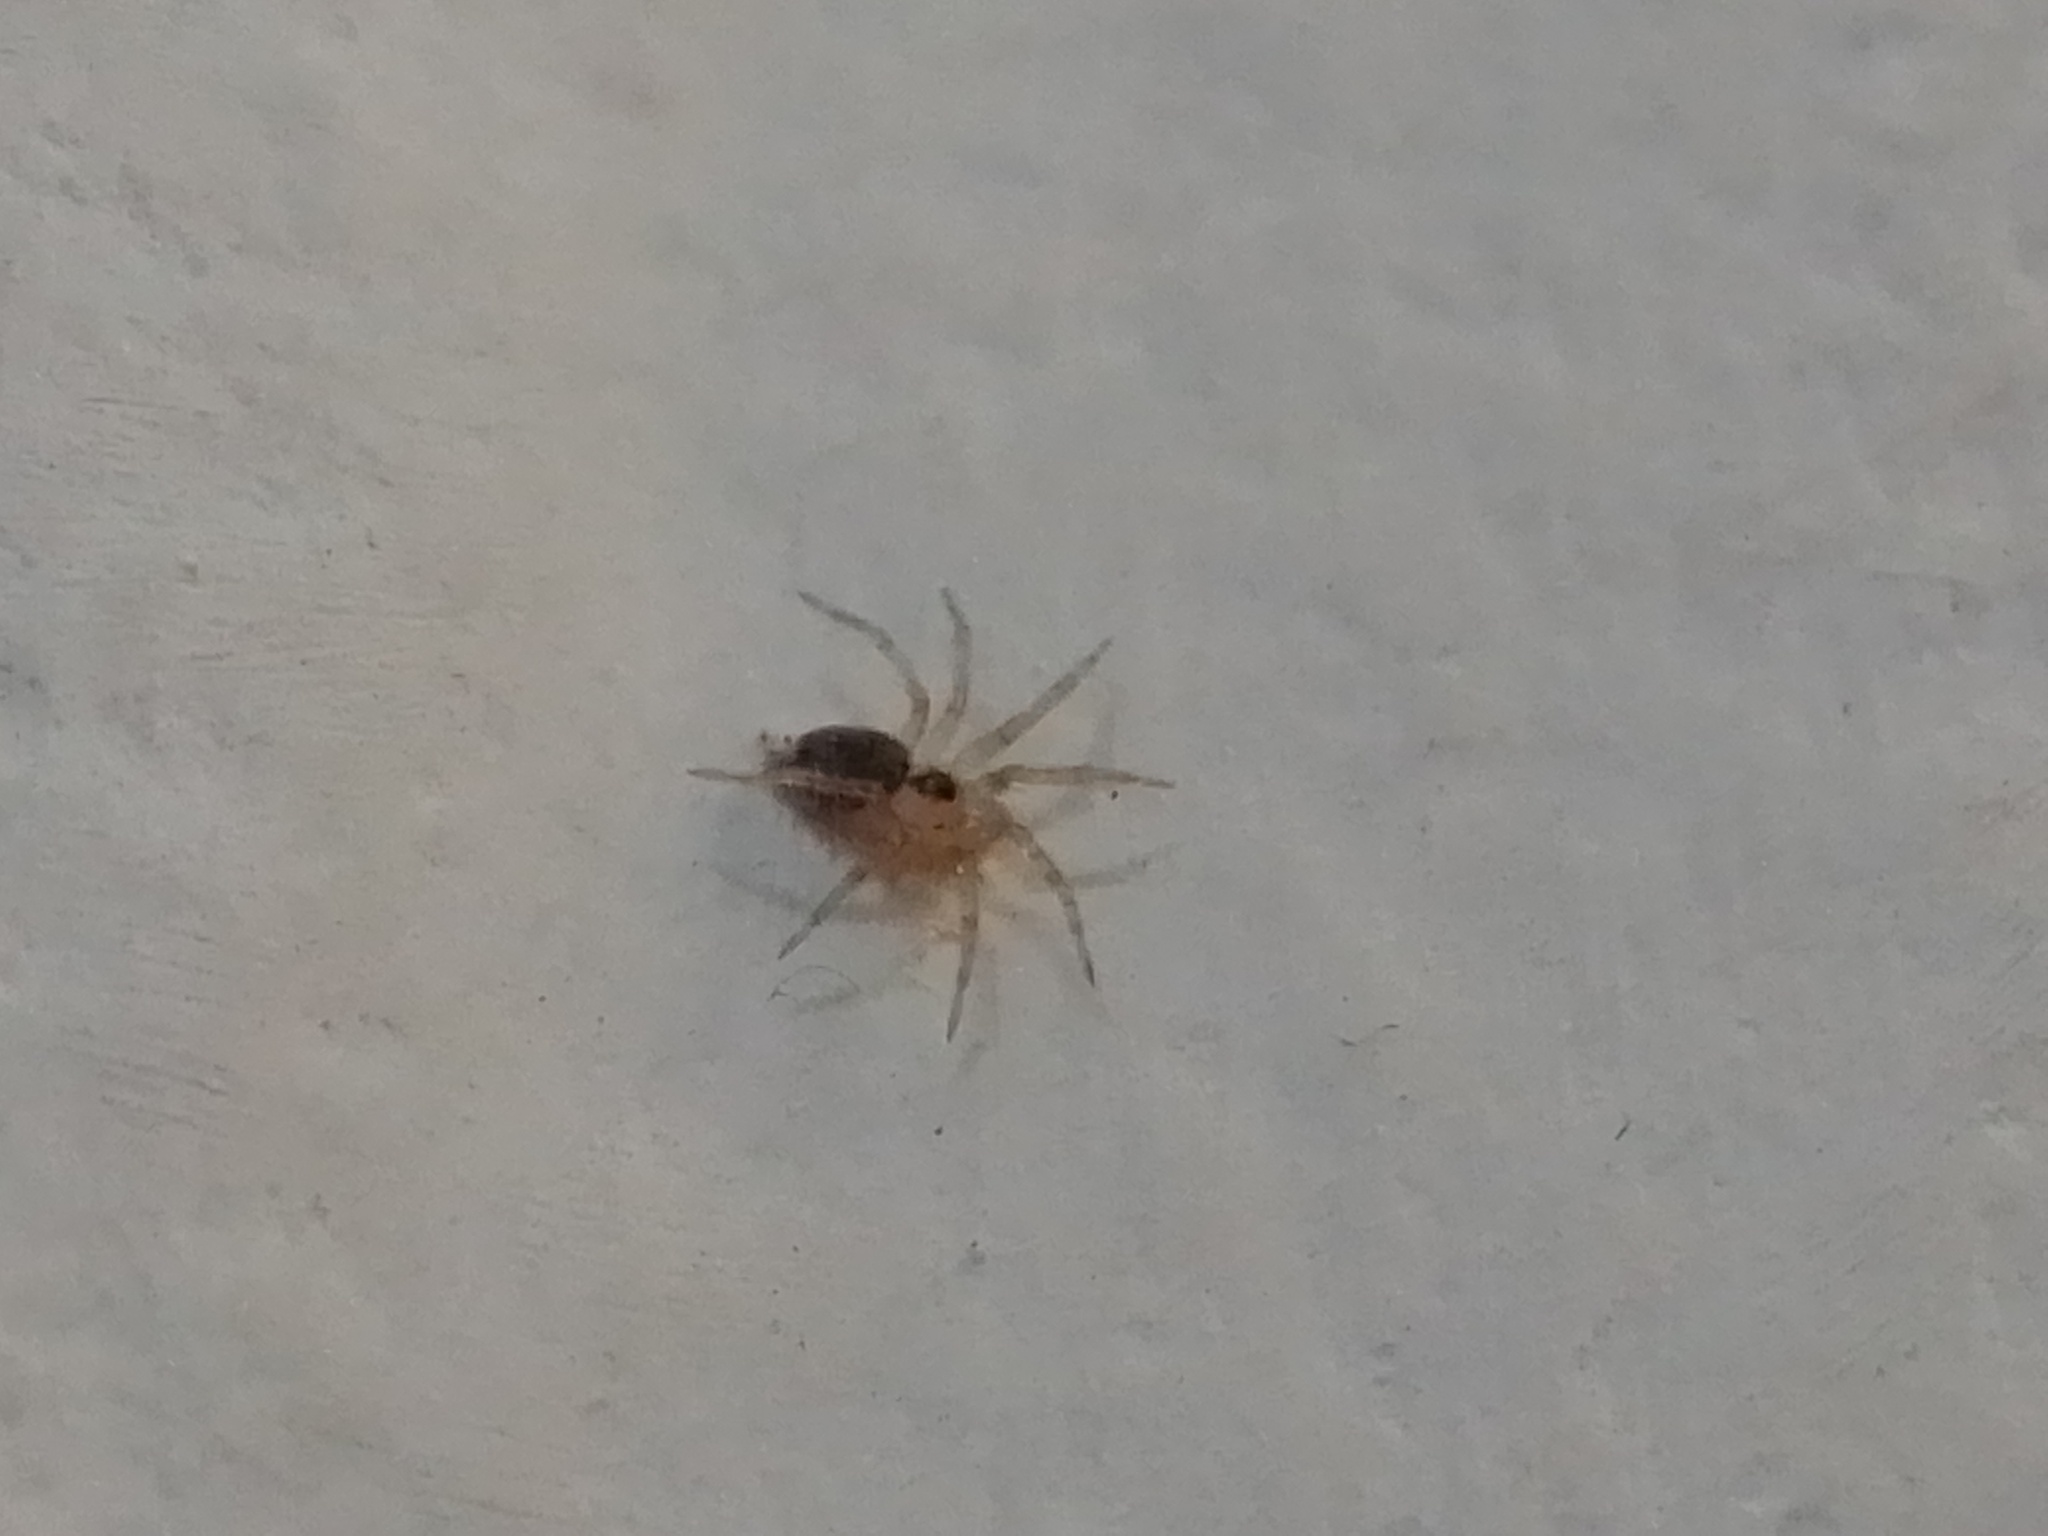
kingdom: Animalia
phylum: Arthropoda
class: Arachnida
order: Araneae
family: Oecobiidae
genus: Oecobius
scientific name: Oecobius navus
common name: Flatmesh weaver
